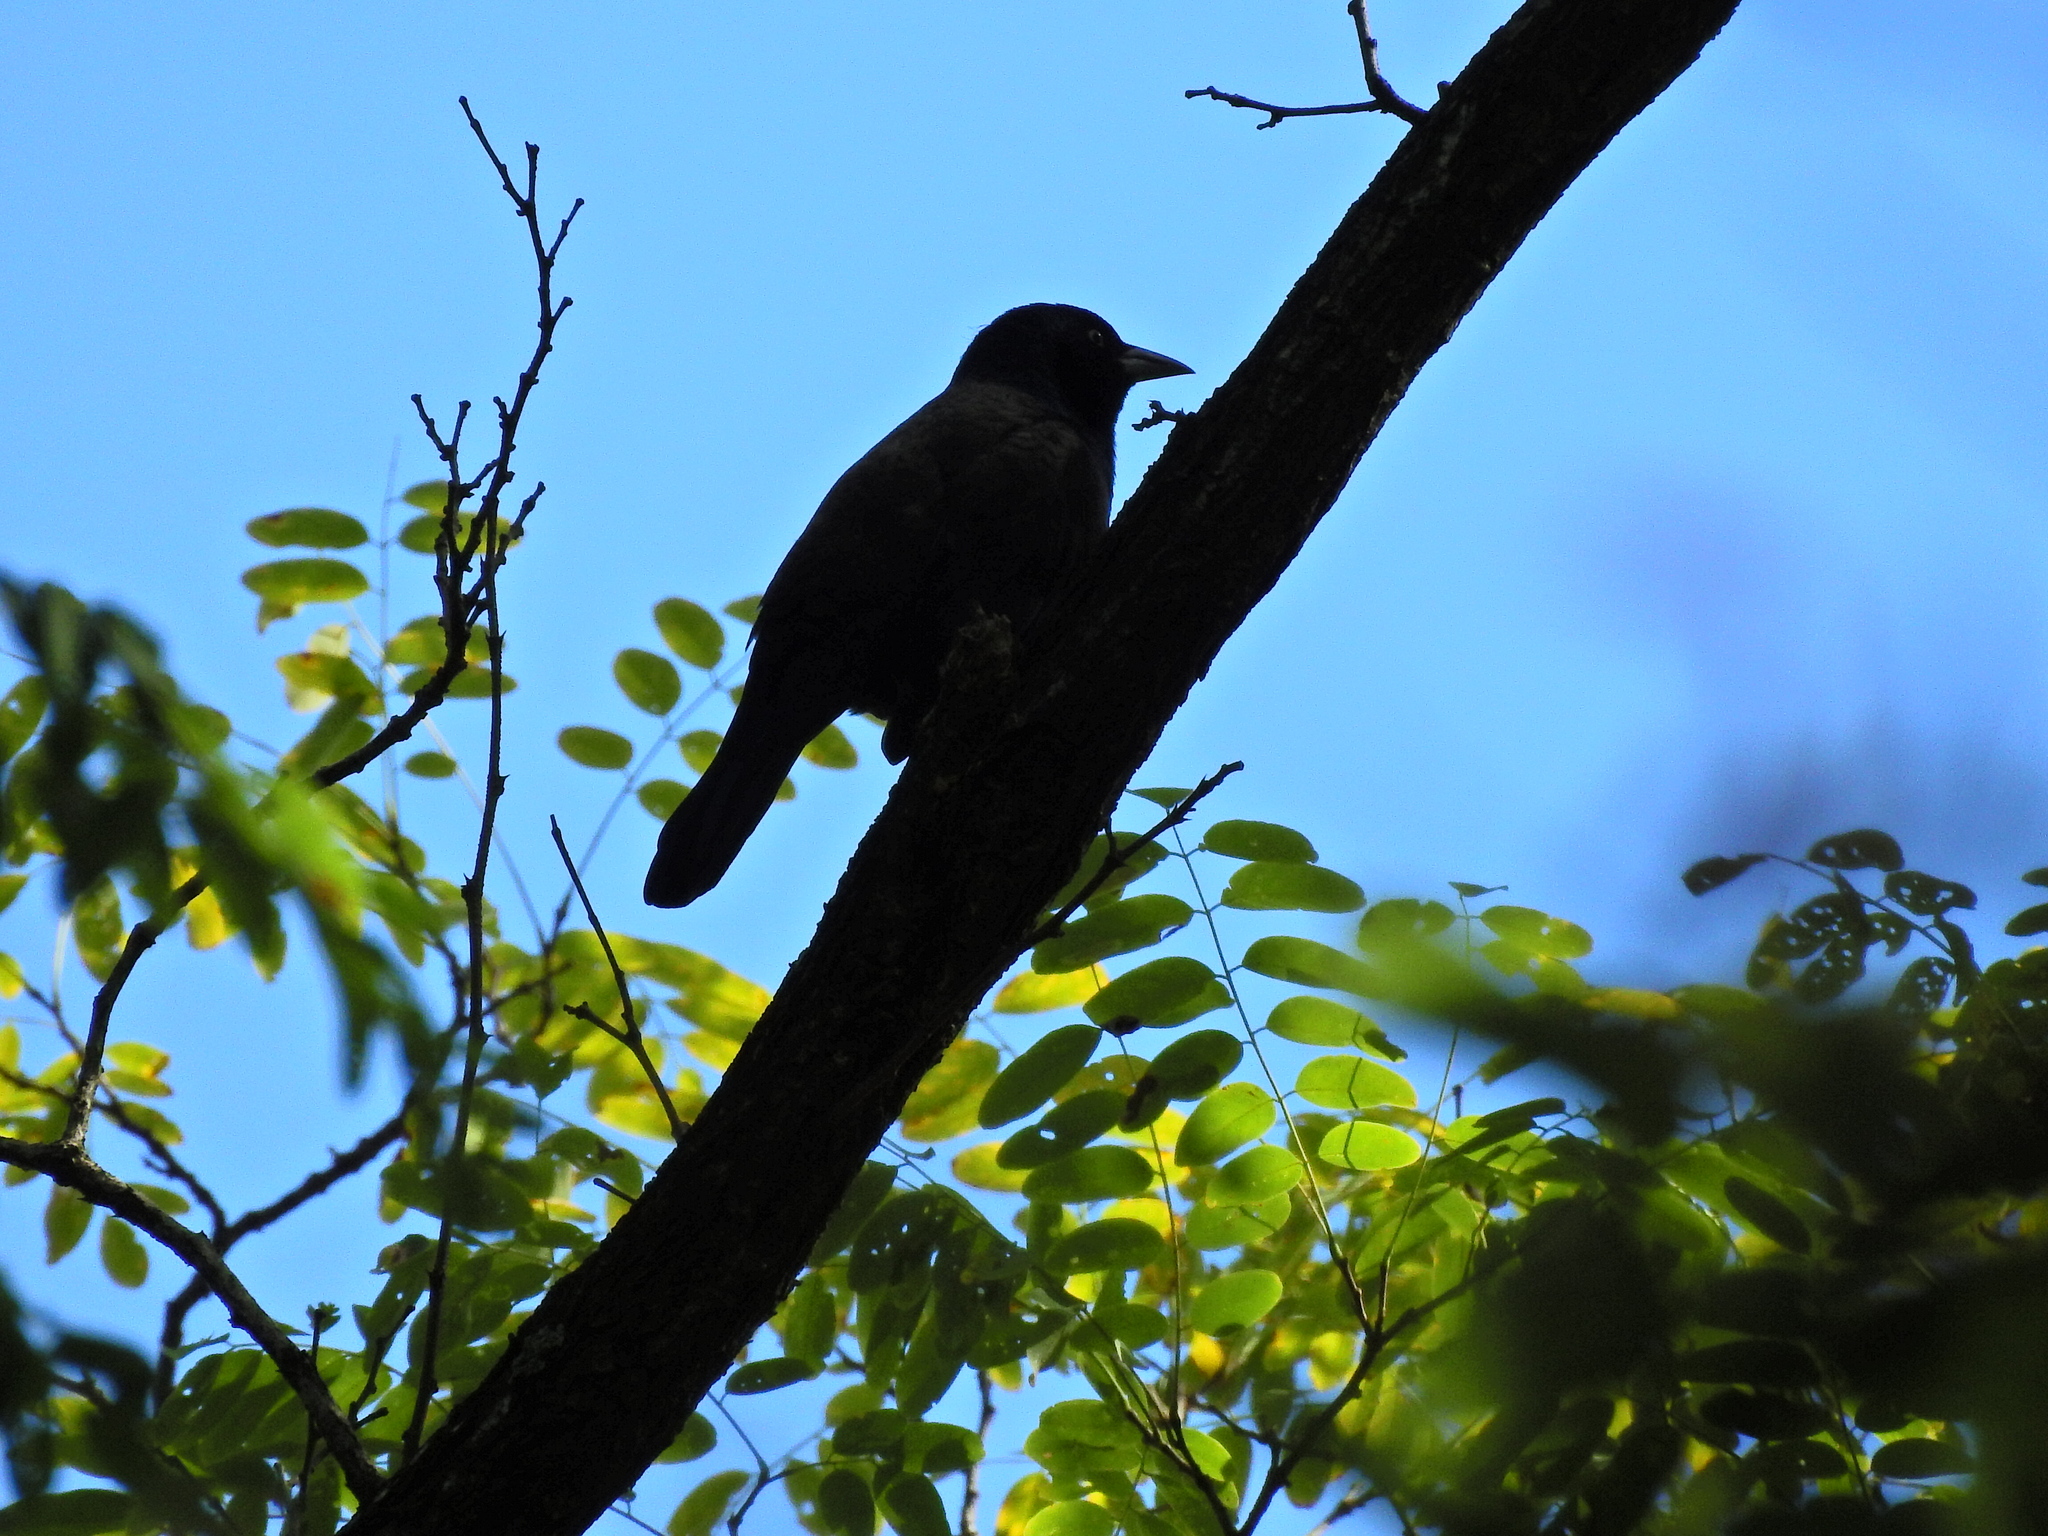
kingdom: Animalia
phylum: Chordata
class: Aves
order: Passeriformes
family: Icteridae
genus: Quiscalus
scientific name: Quiscalus quiscula
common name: Common grackle
